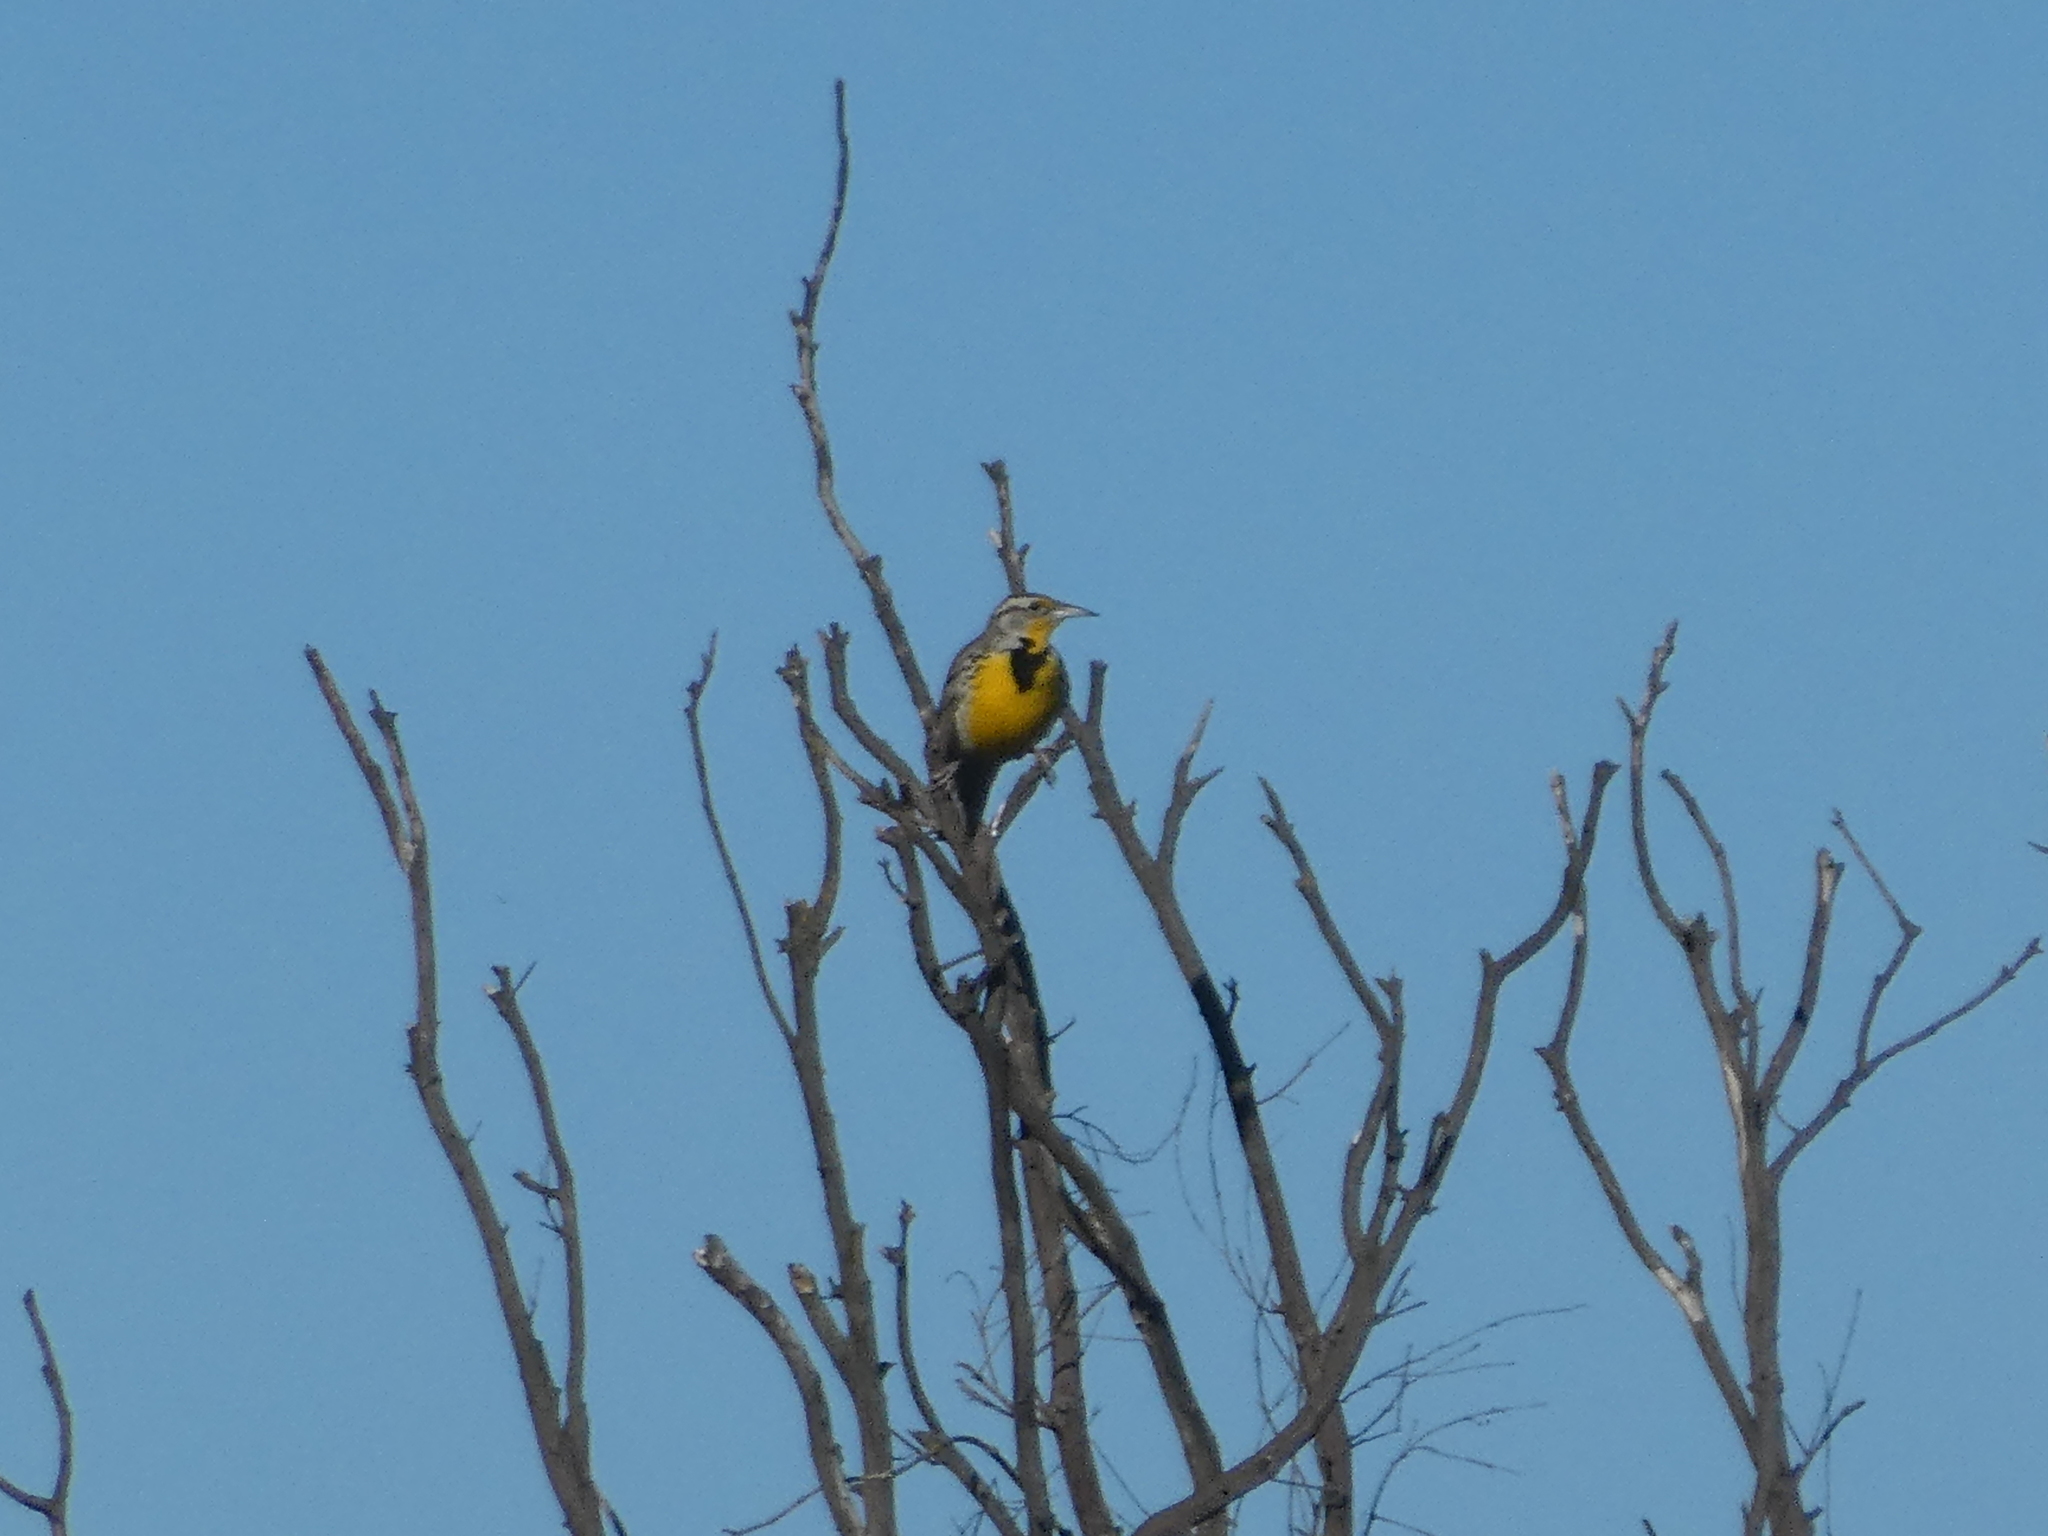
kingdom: Animalia
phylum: Chordata
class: Aves
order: Passeriformes
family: Icteridae
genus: Sturnella
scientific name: Sturnella neglecta
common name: Western meadowlark
